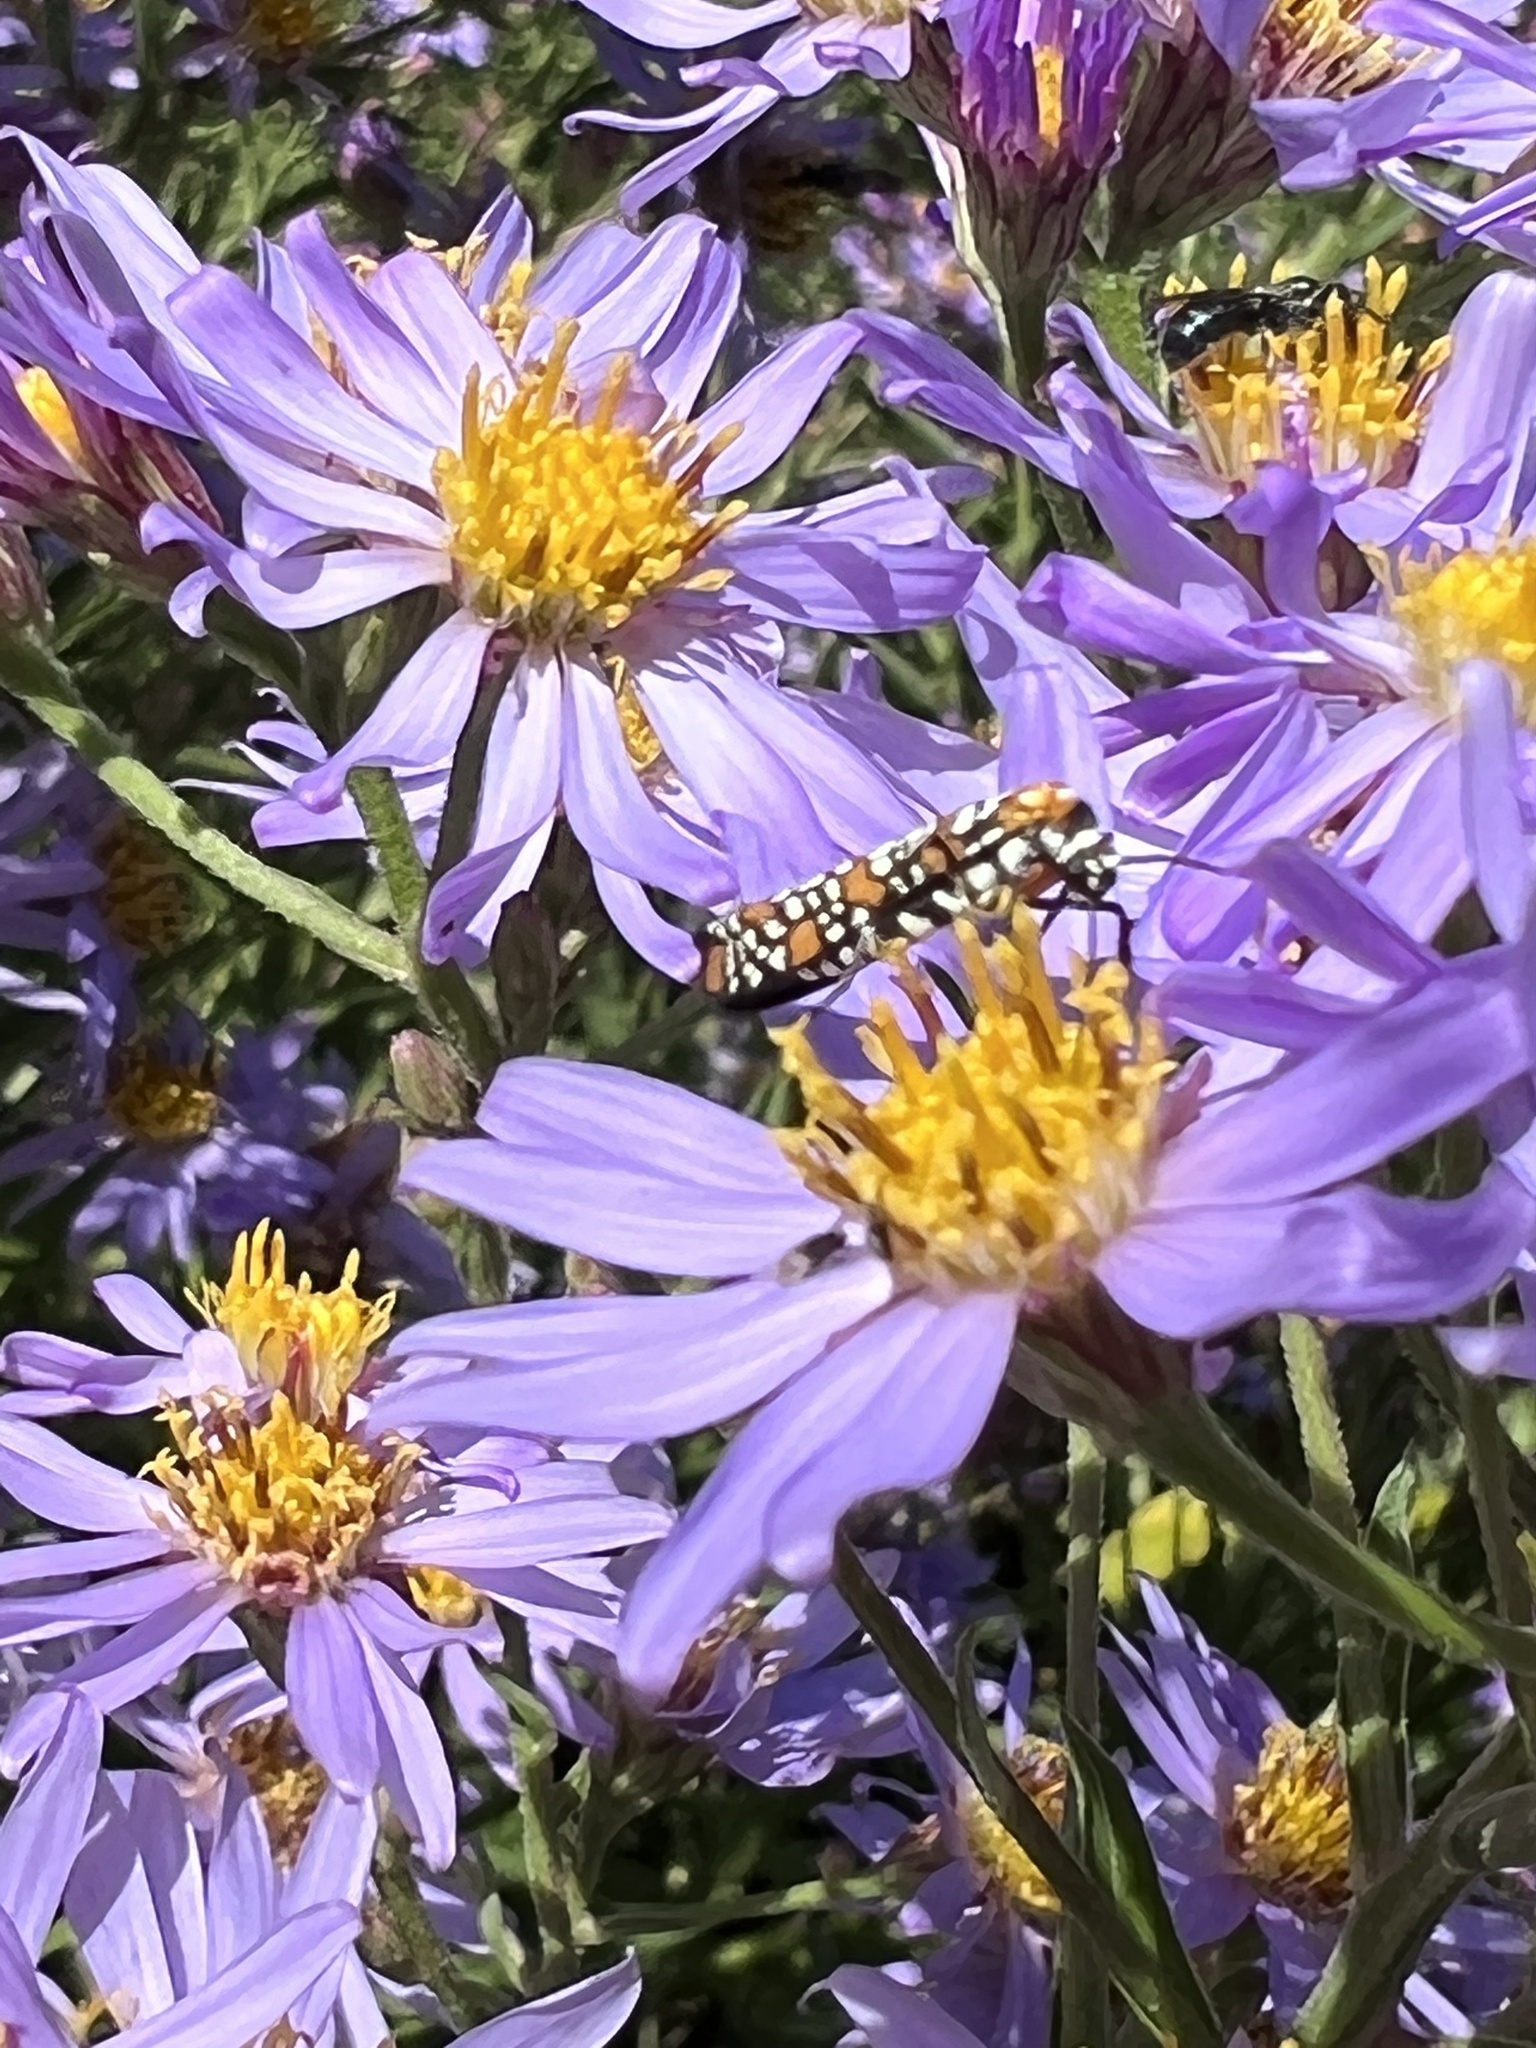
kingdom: Animalia
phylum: Arthropoda
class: Insecta
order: Lepidoptera
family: Attevidae
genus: Atteva
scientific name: Atteva punctella
